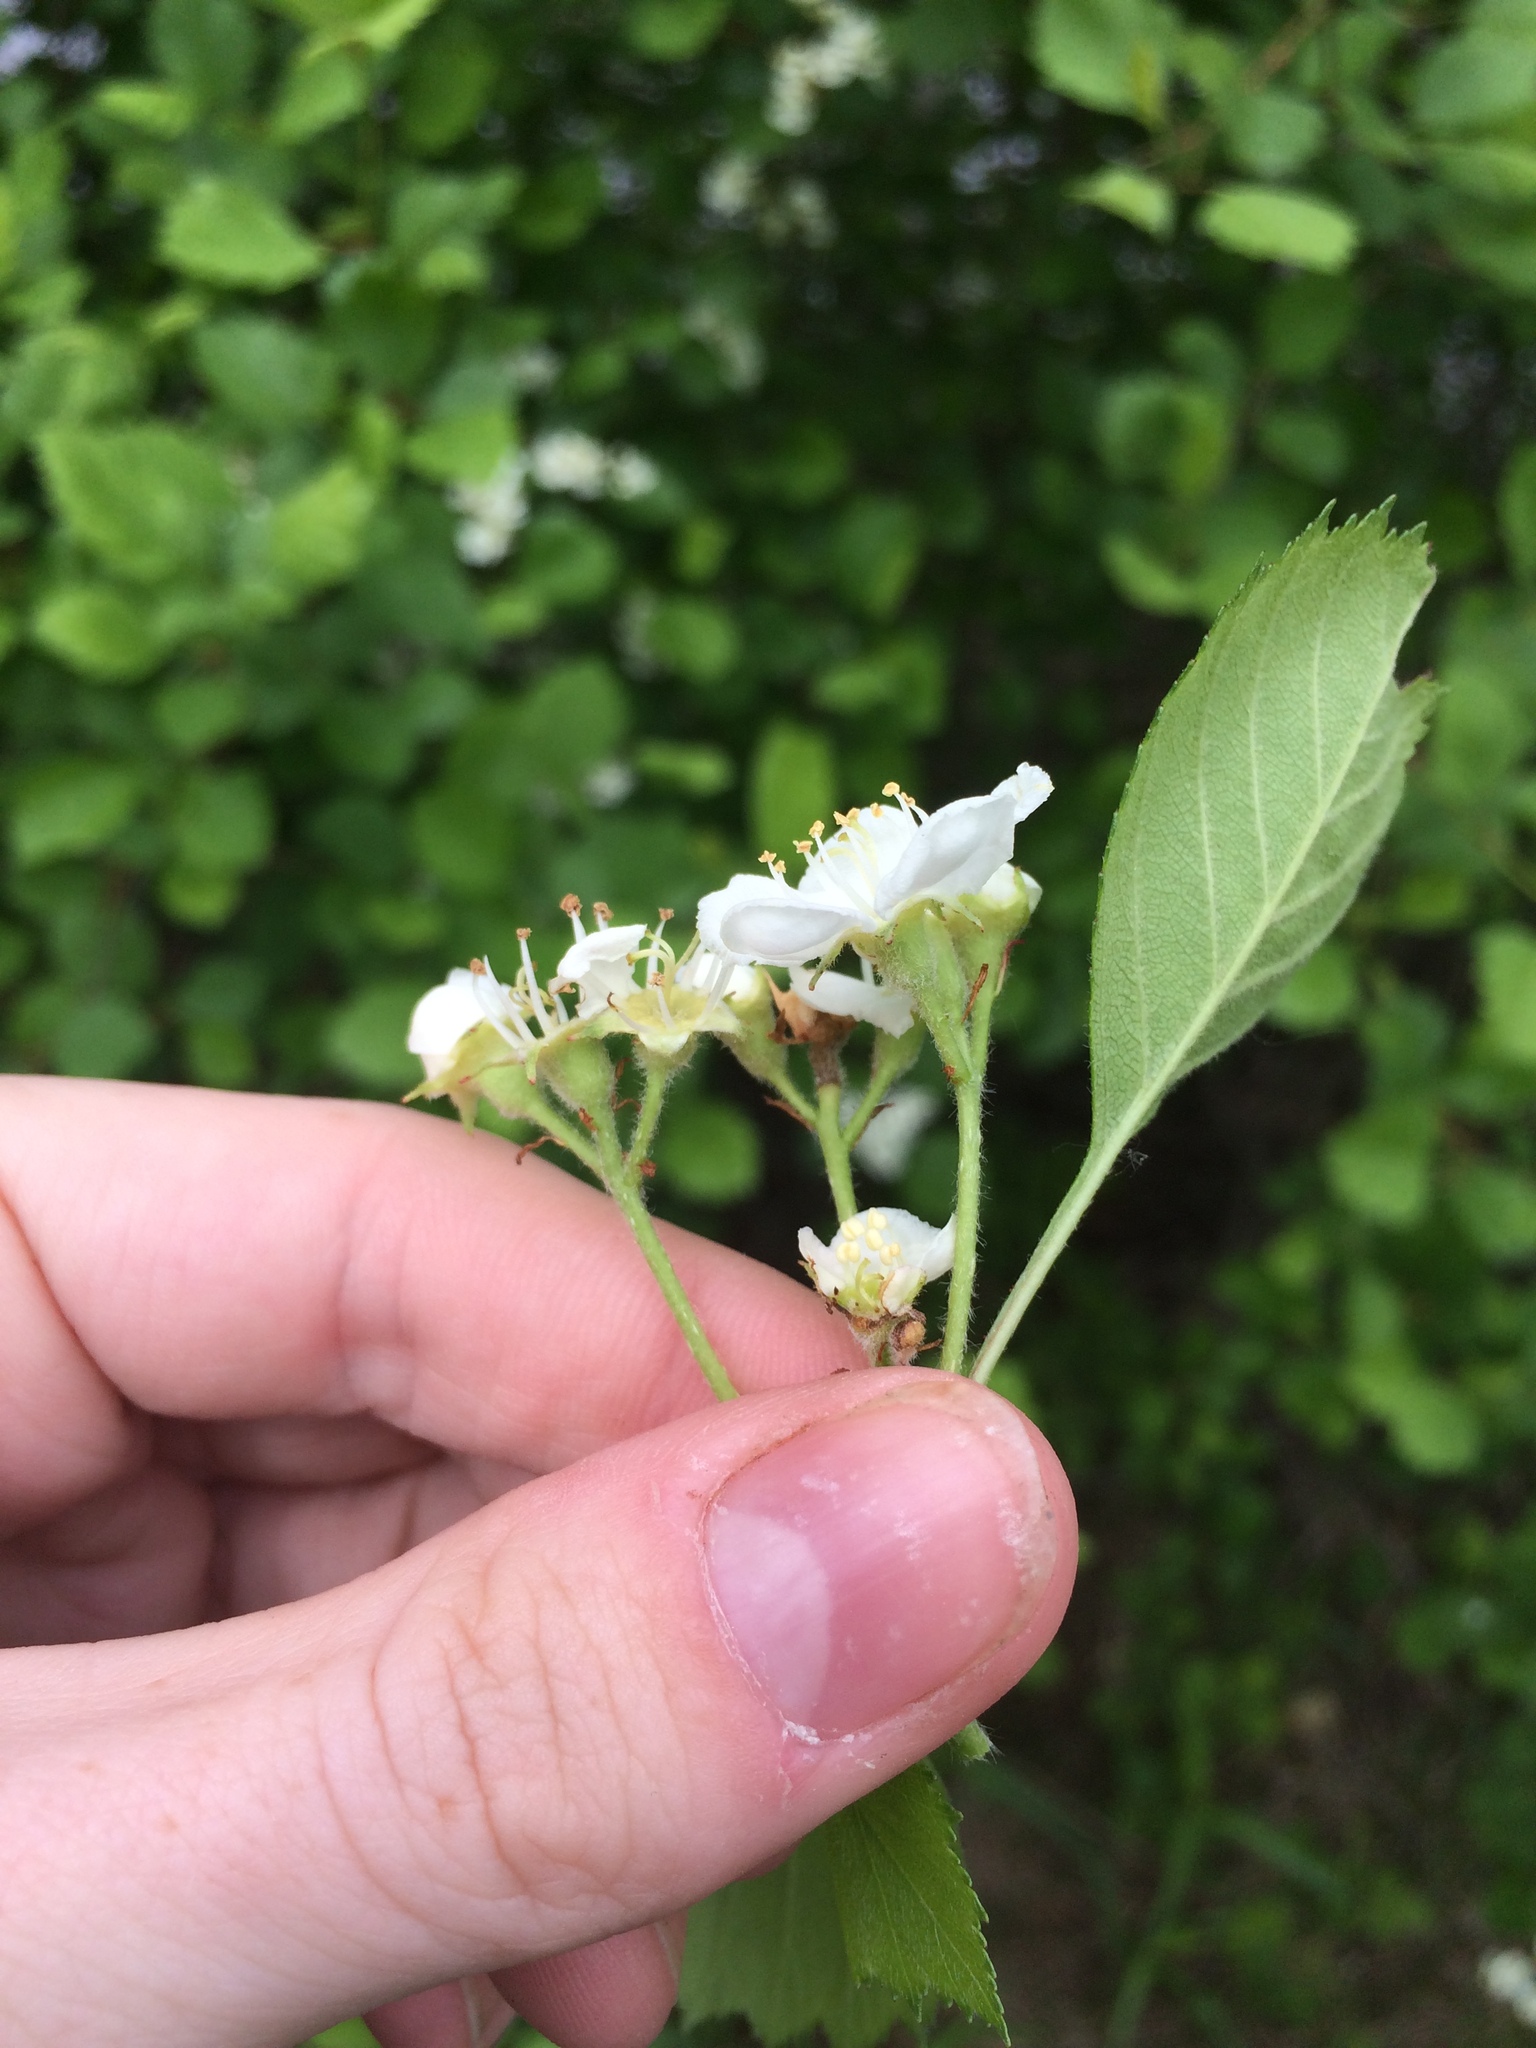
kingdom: Plantae
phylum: Tracheophyta
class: Magnoliopsida
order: Rosales
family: Rosaceae
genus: Crataegus
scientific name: Crataegus chrysocarpa
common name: Fire-berry hawthorn
